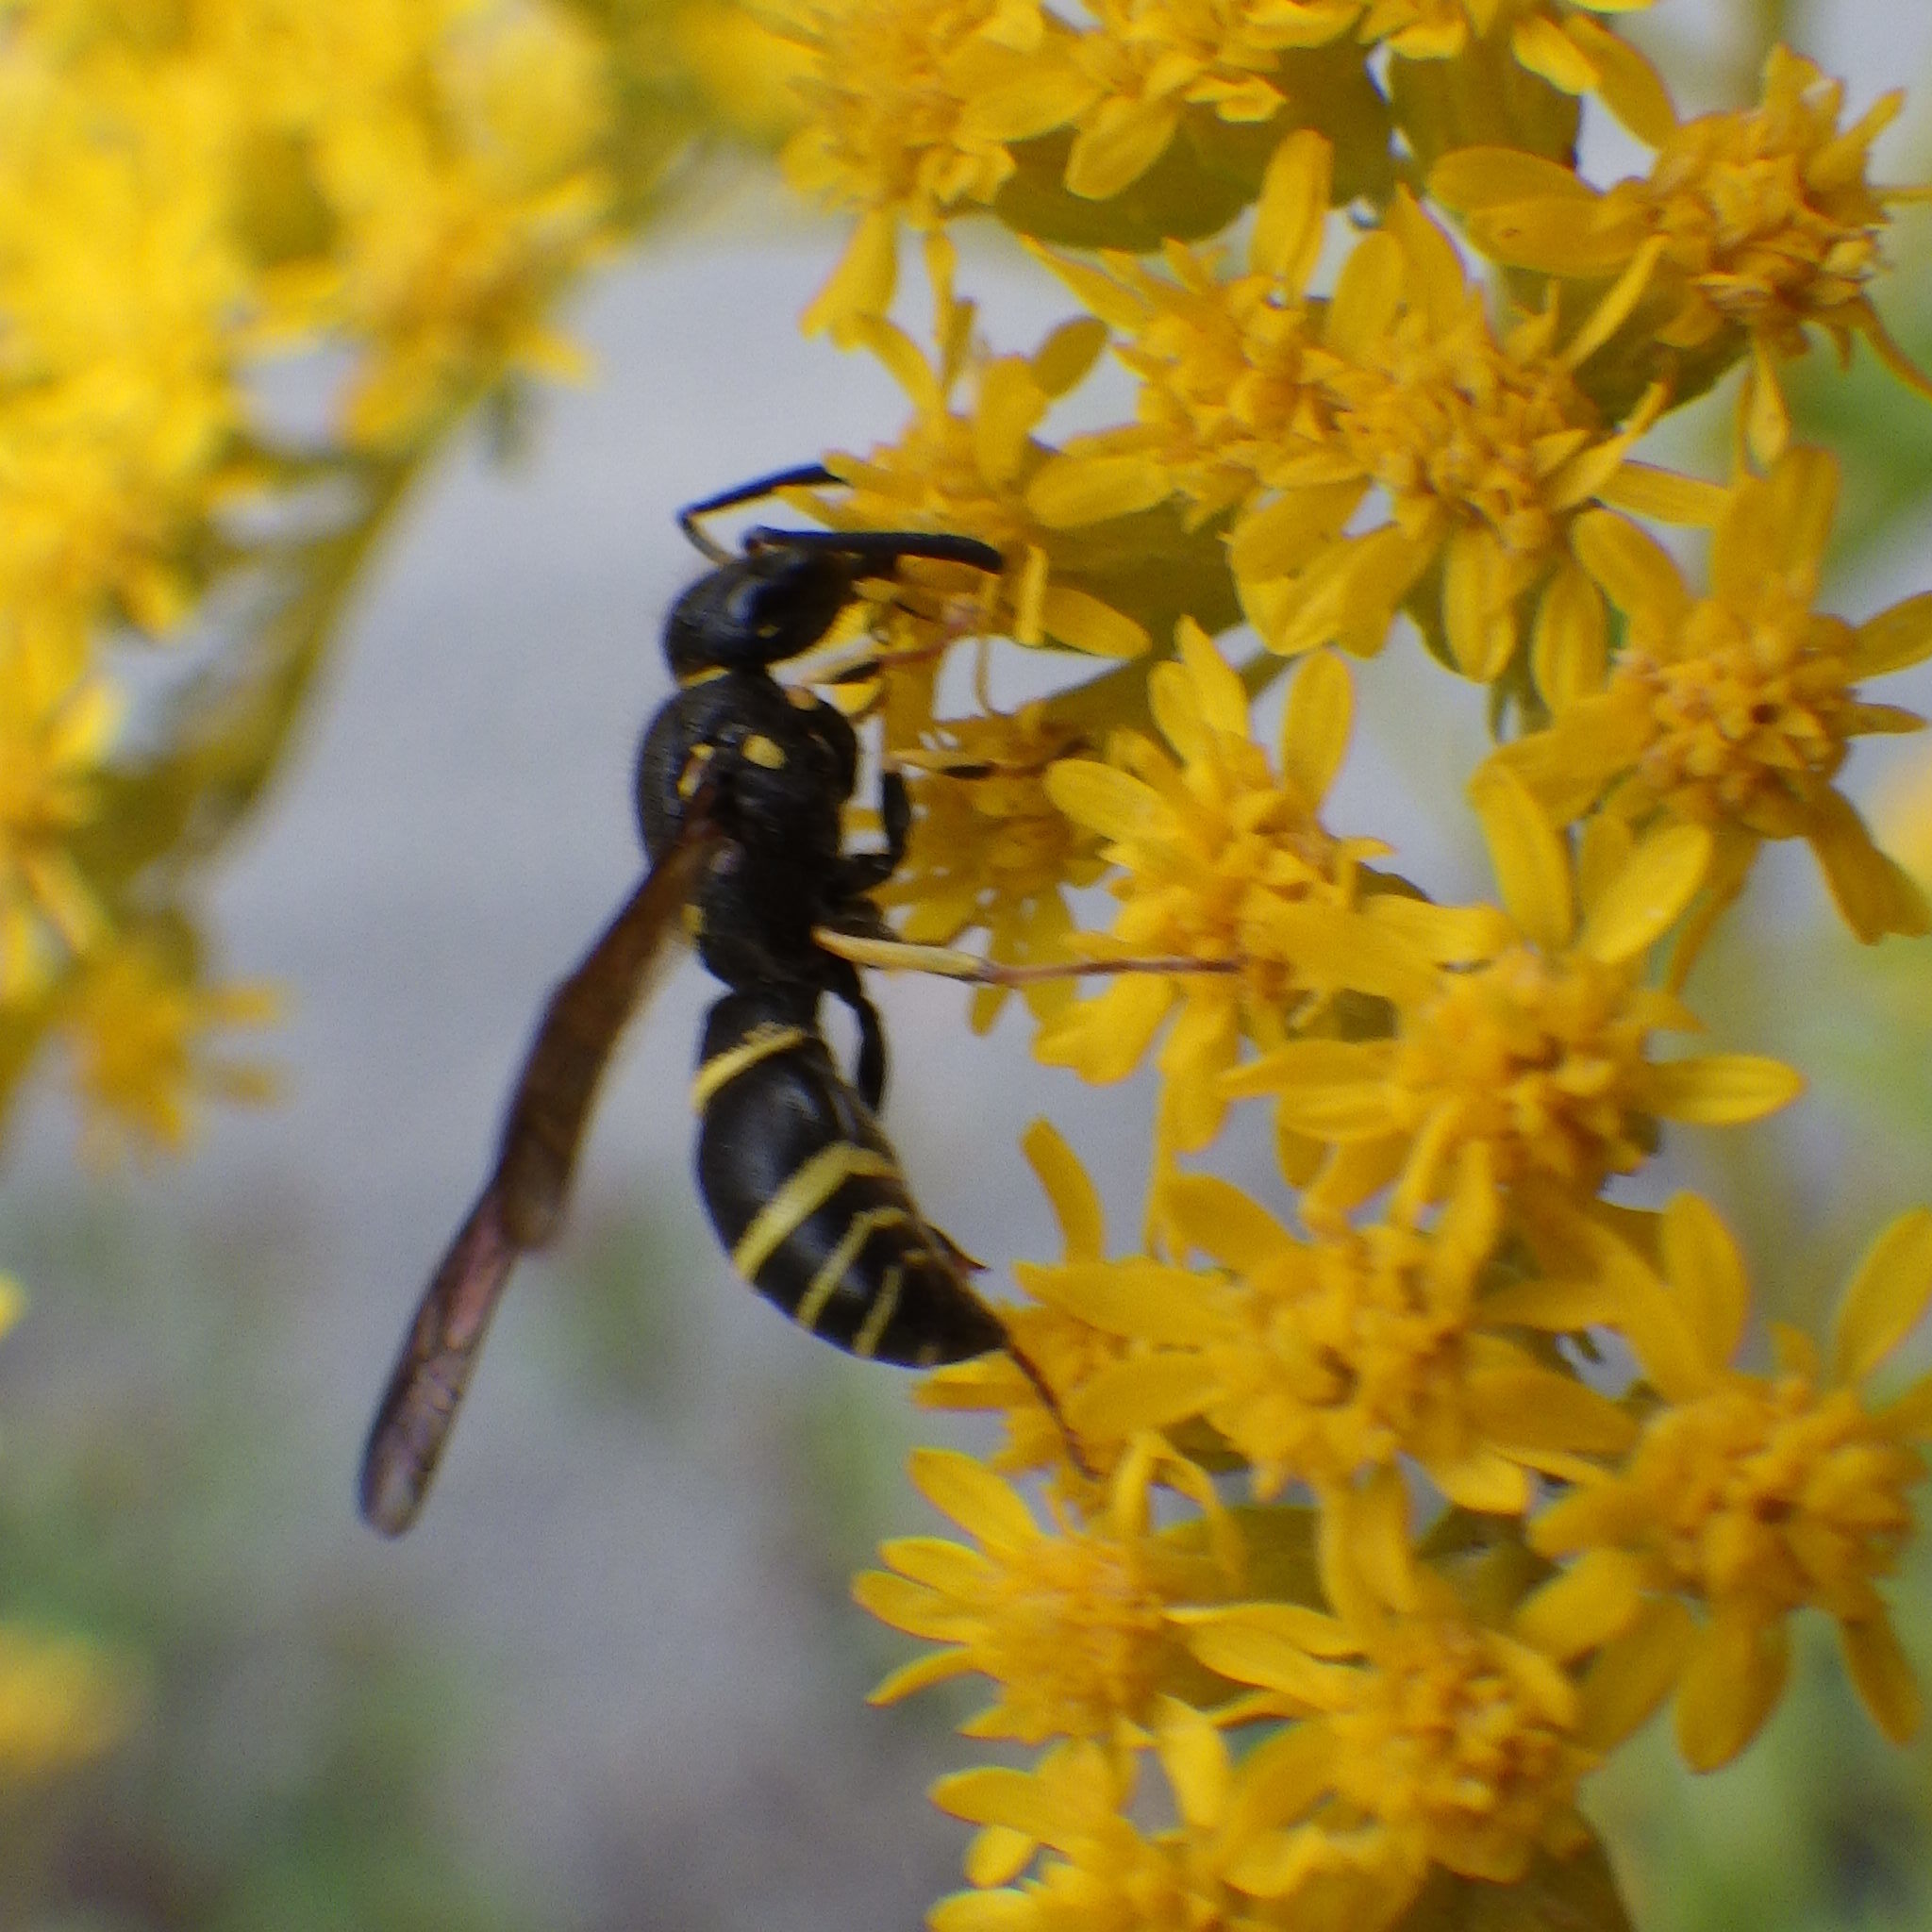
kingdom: Animalia
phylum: Arthropoda
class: Insecta
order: Hymenoptera
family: Vespidae
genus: Ancistrocerus
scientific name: Ancistrocerus adiabatus
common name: Bramble mason wasp
